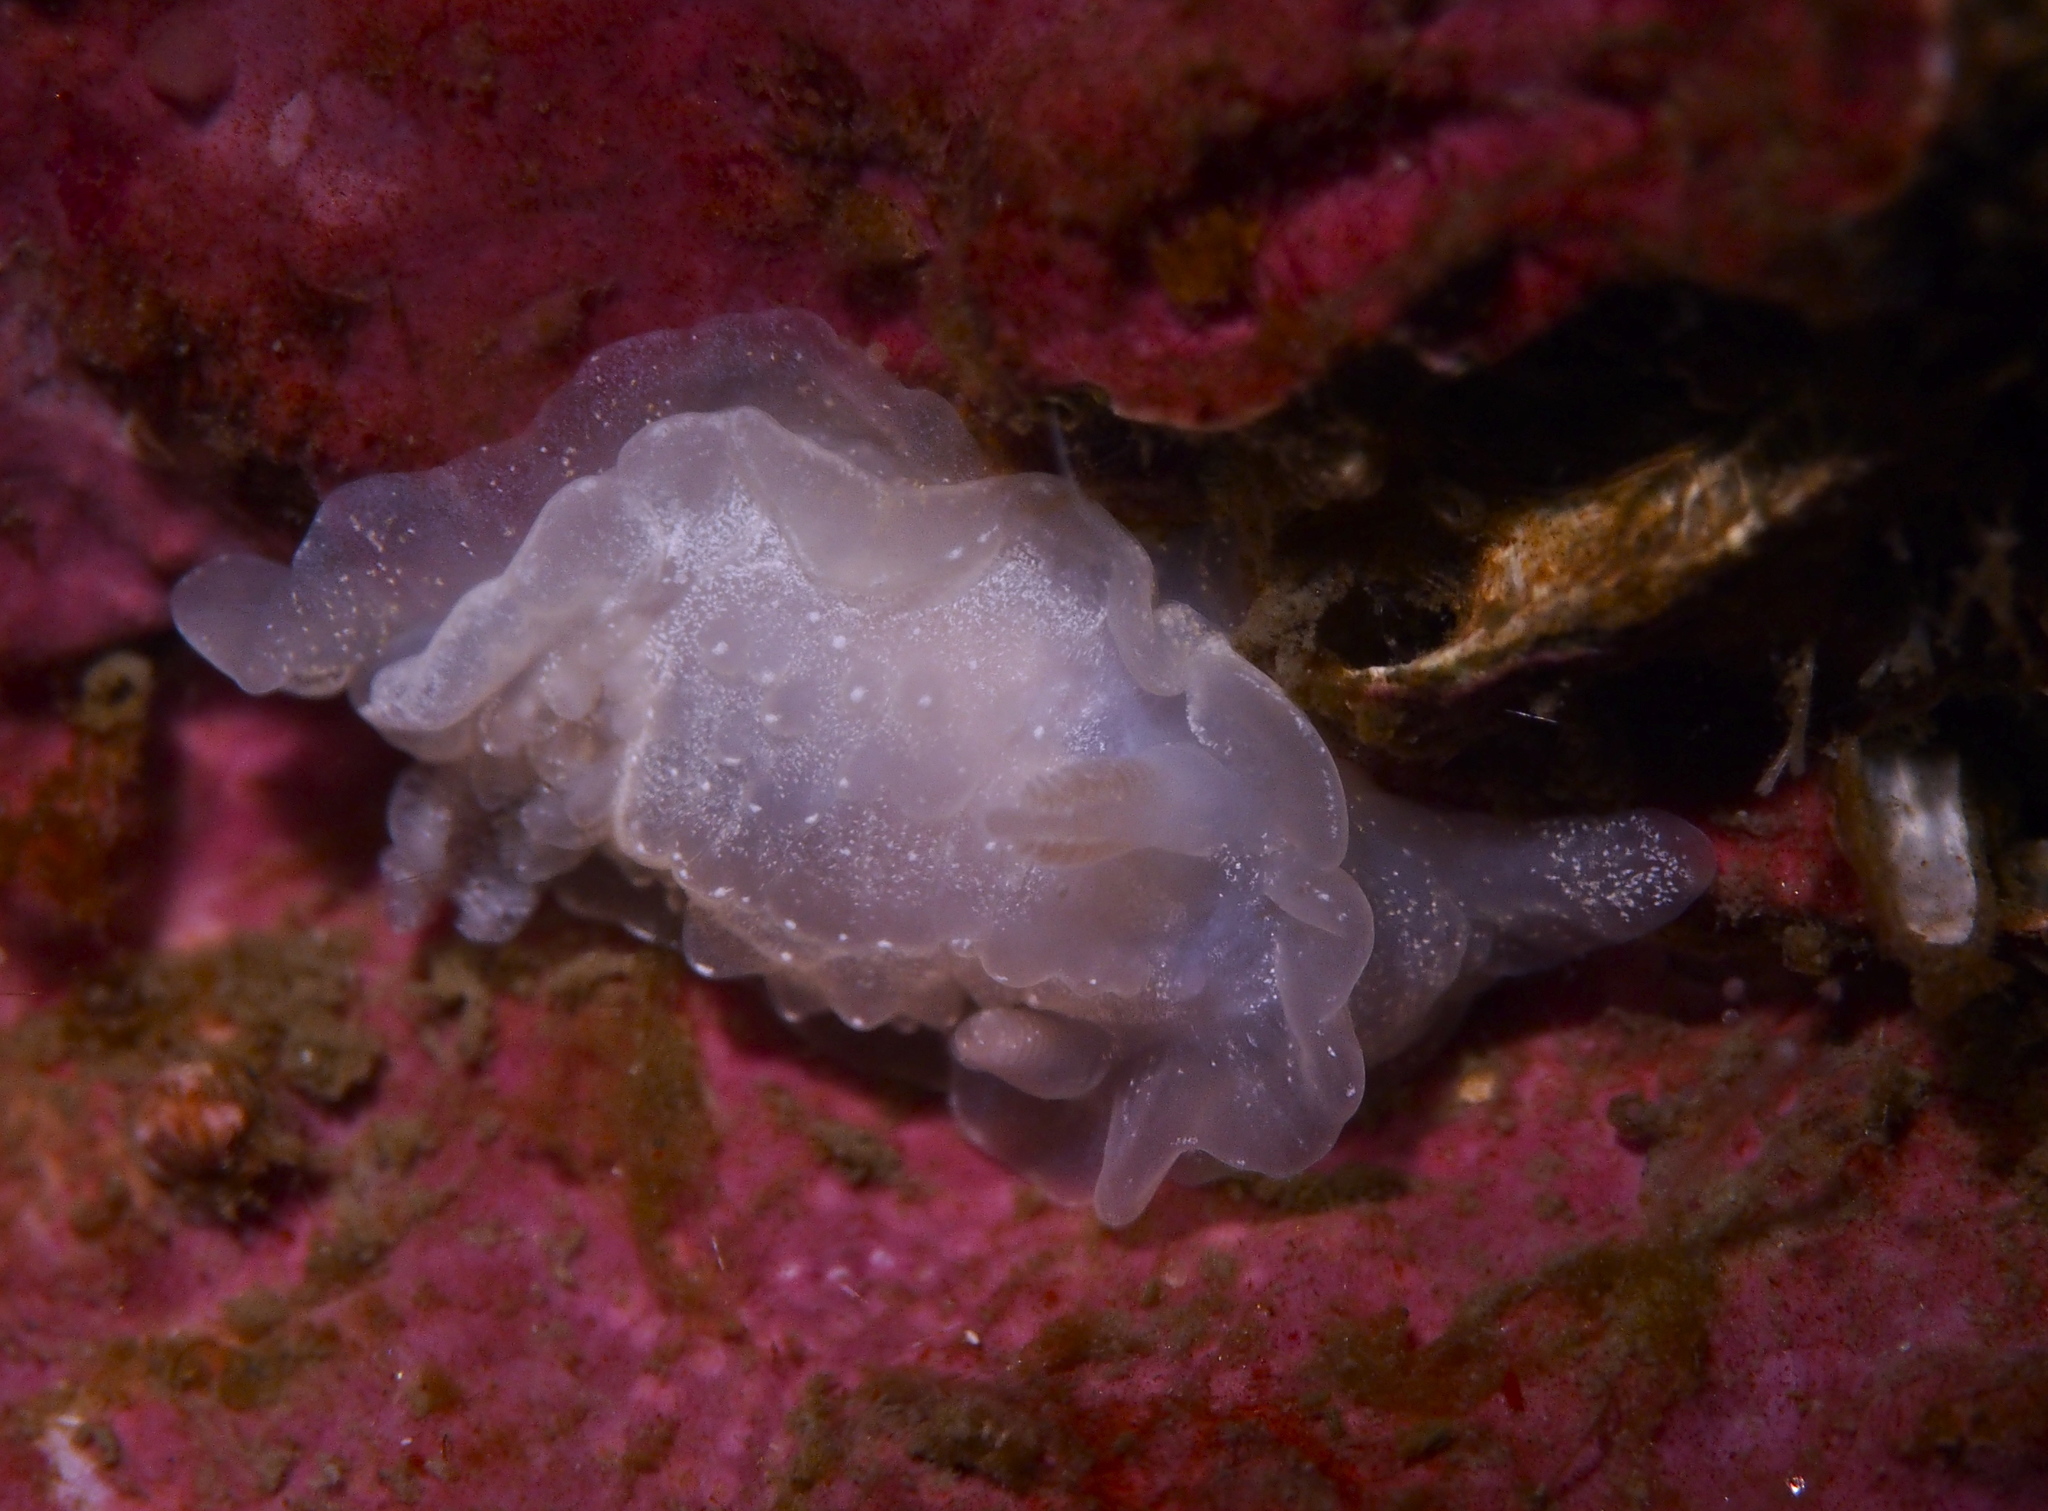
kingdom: Animalia
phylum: Mollusca
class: Gastropoda
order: Nudibranchia
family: Goniodorididae
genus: Okenia
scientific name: Okenia
